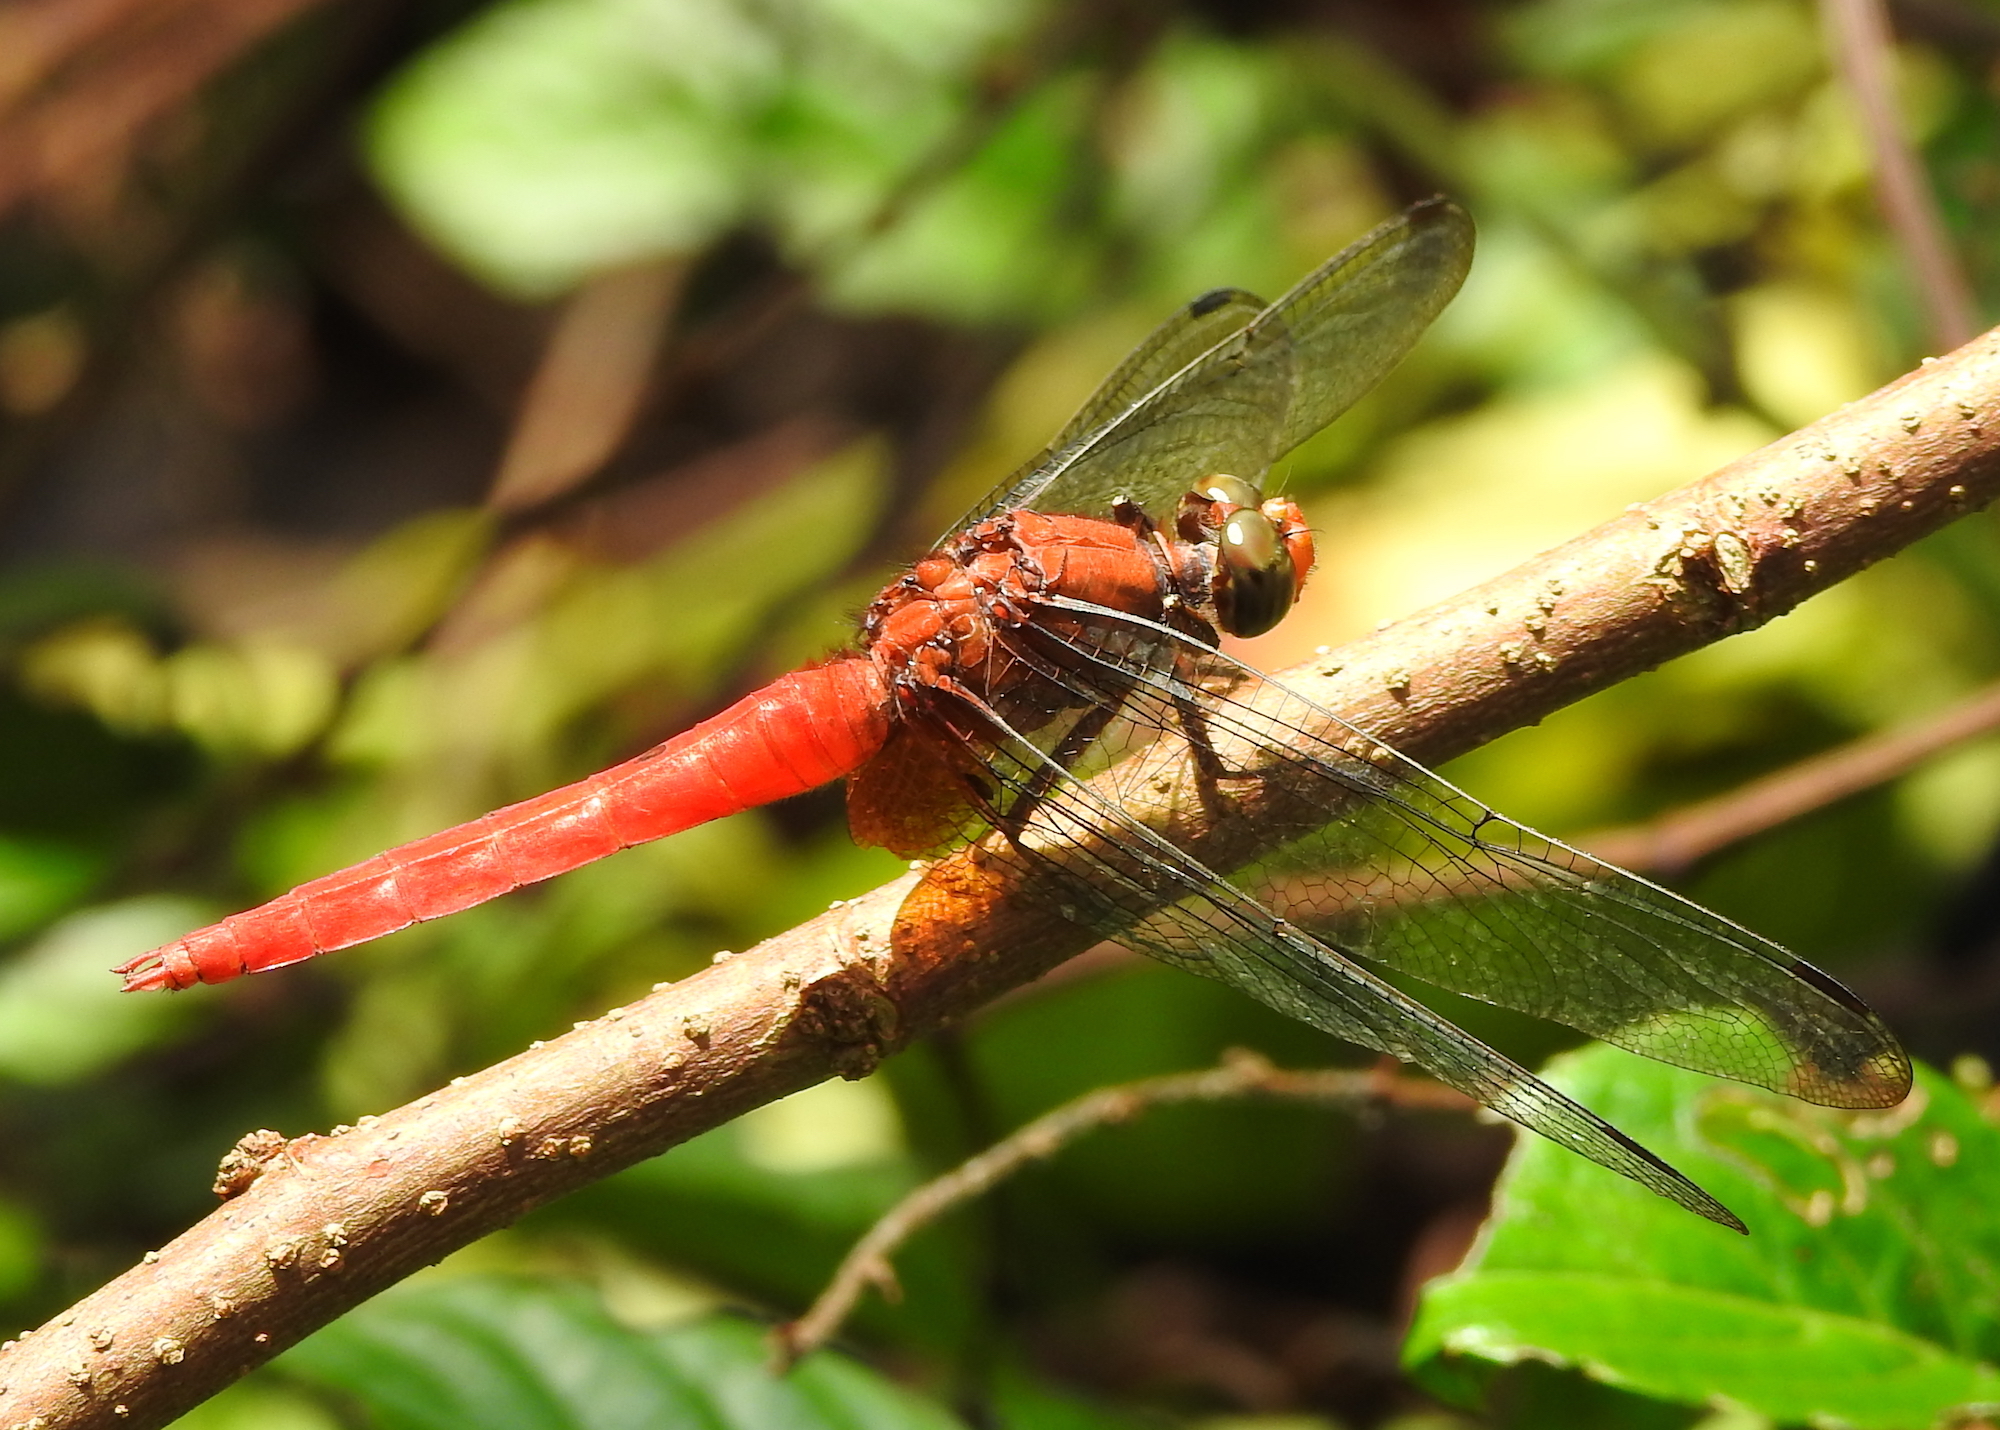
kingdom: Animalia
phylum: Arthropoda
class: Insecta
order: Odonata
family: Libellulidae
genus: Orthetrum
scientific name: Orthetrum testaceum
